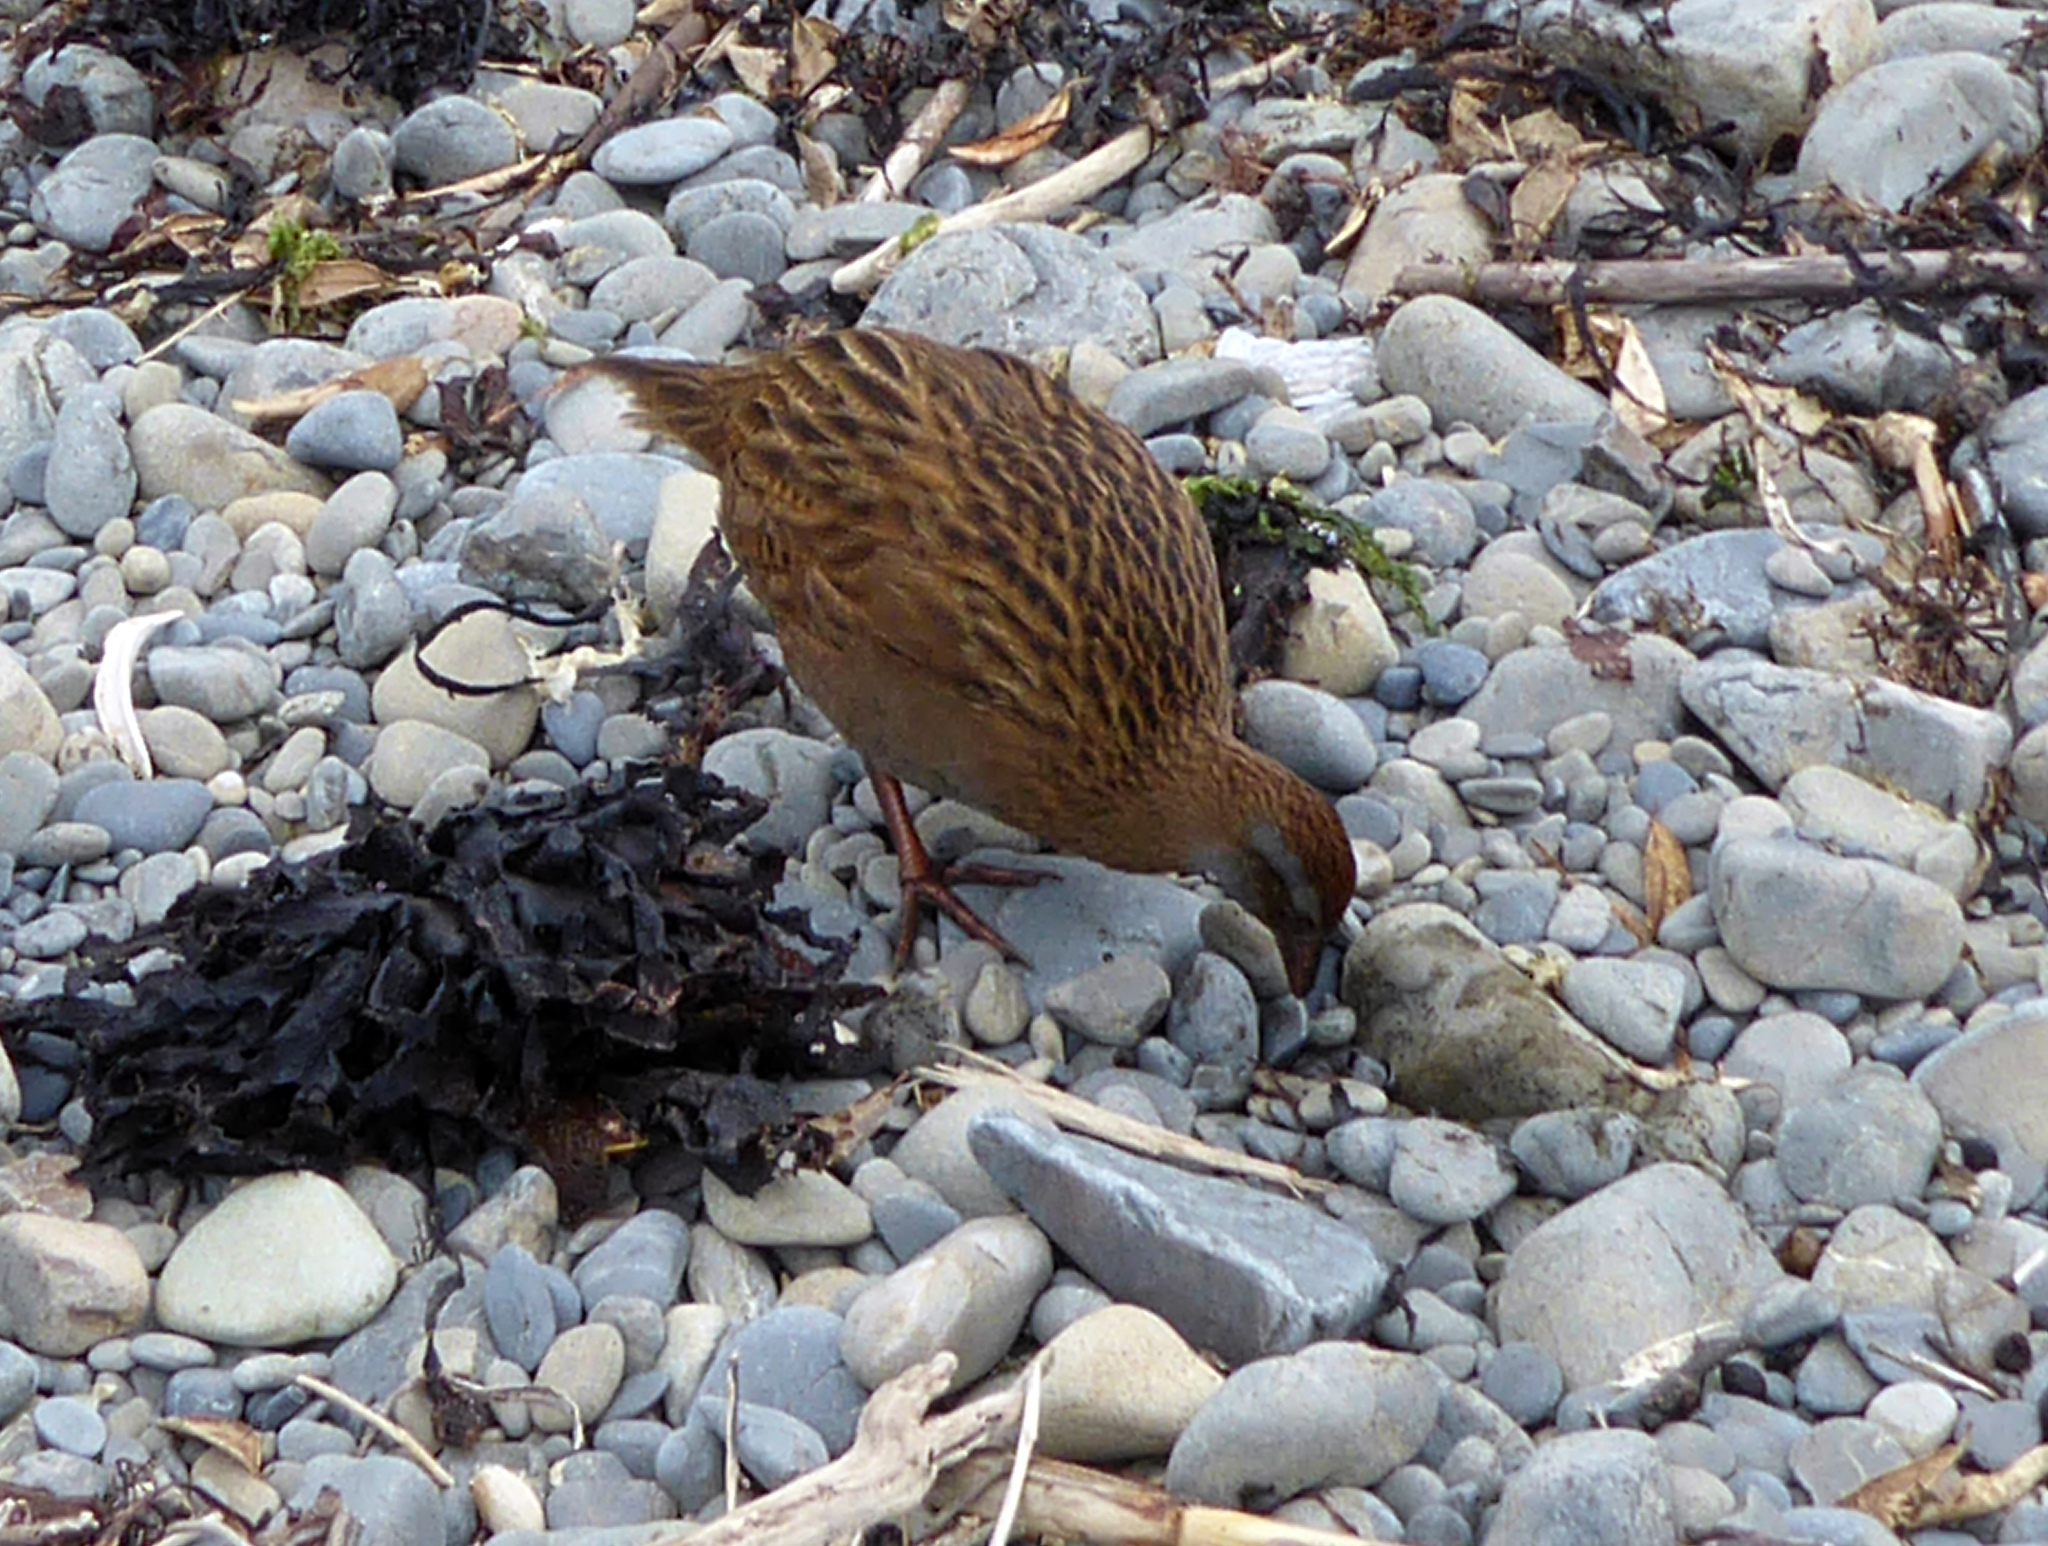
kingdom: Animalia
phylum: Chordata
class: Aves
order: Gruiformes
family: Rallidae
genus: Gallirallus
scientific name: Gallirallus
